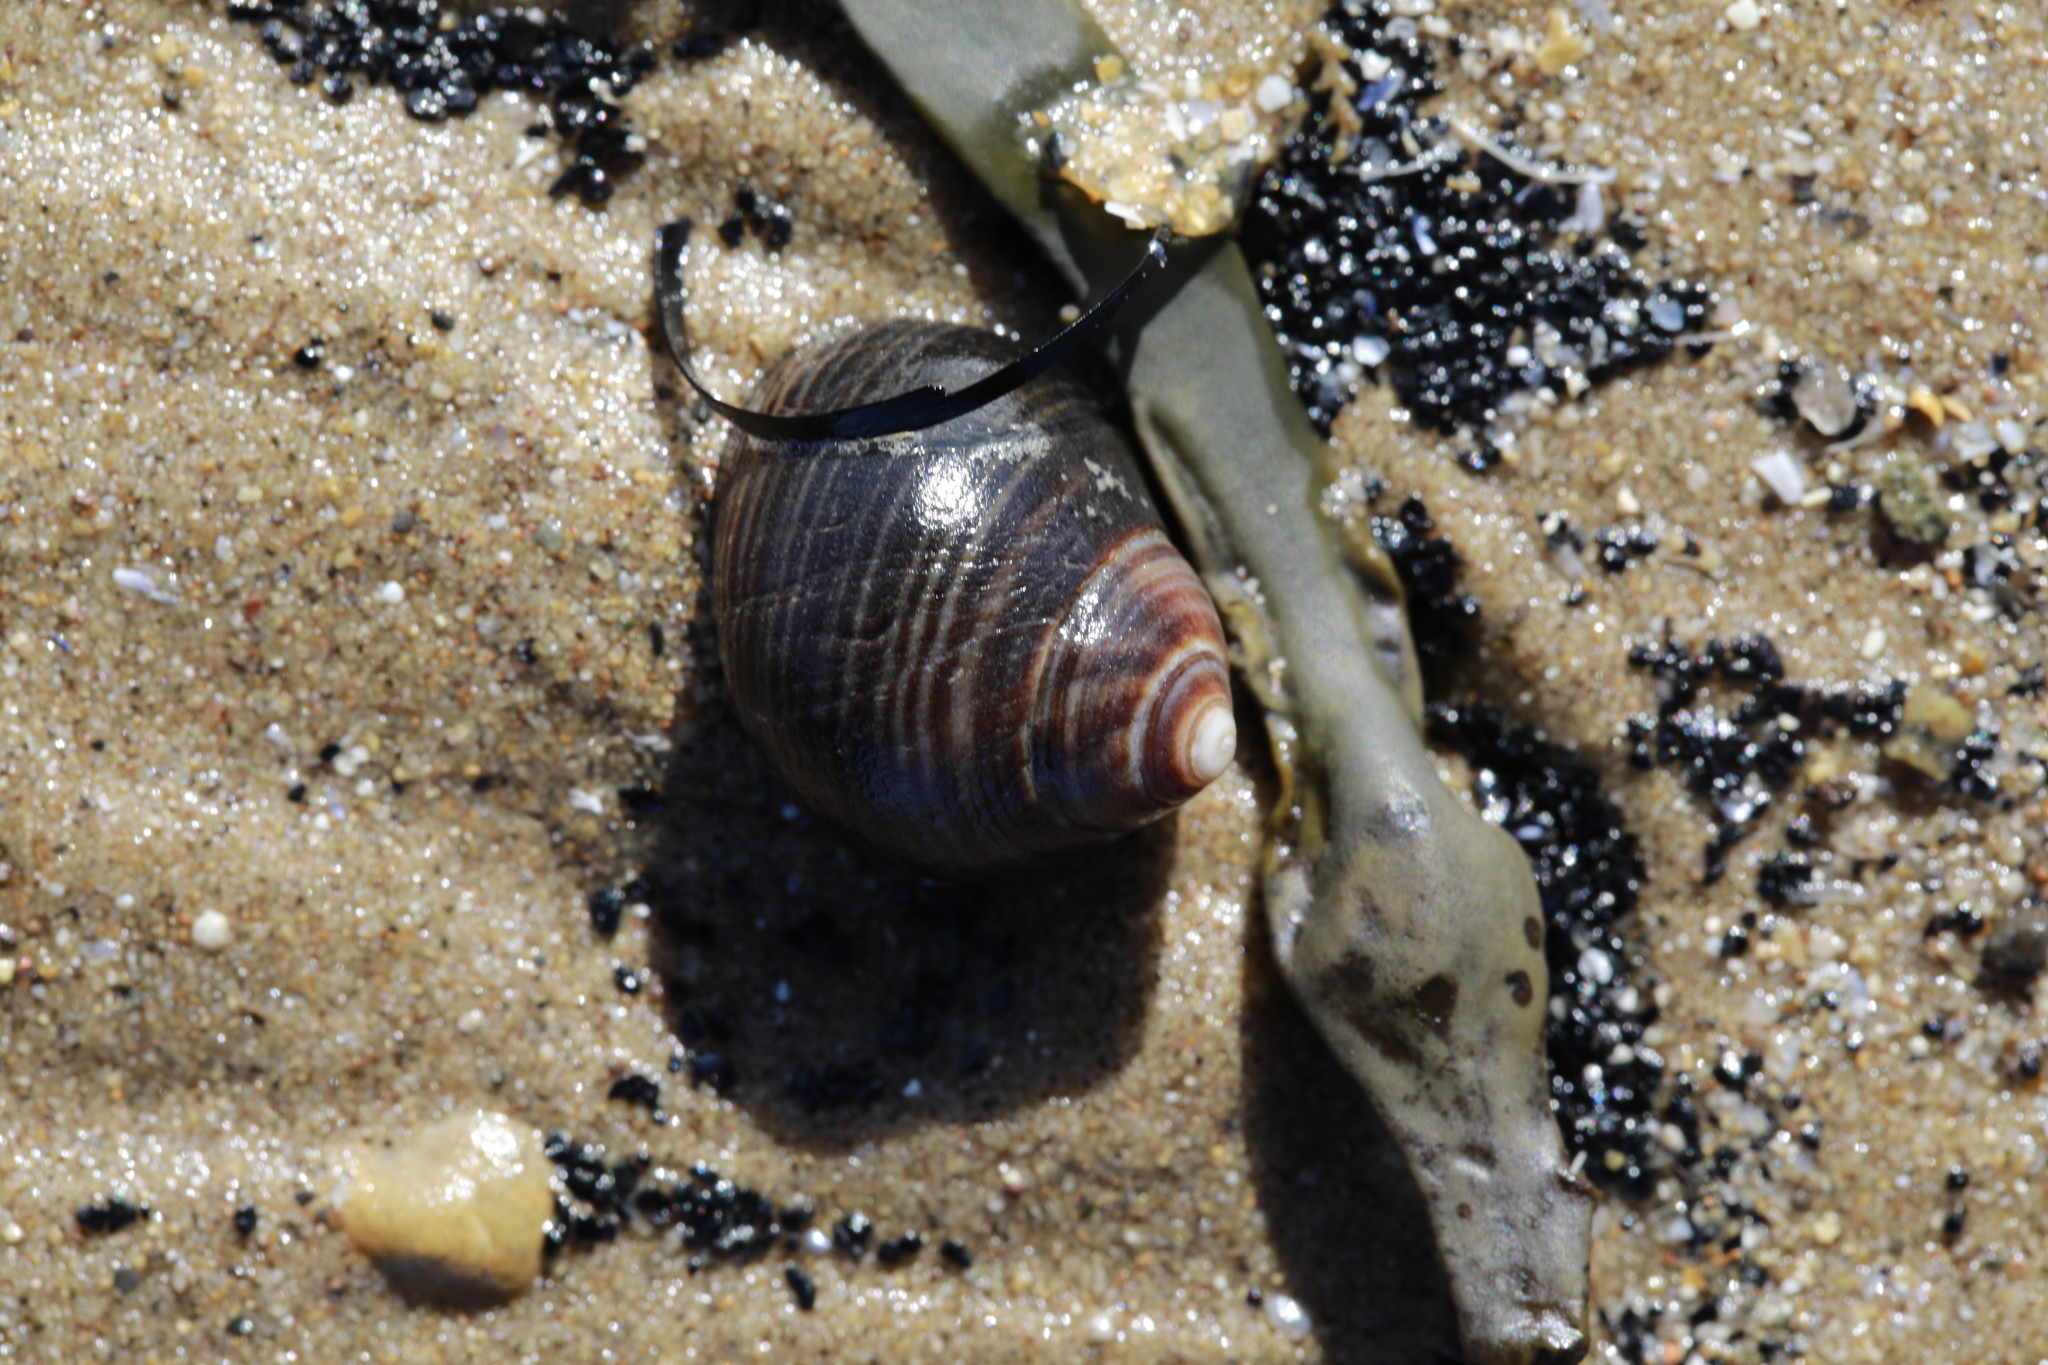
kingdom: Animalia
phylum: Mollusca
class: Gastropoda
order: Littorinimorpha
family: Littorinidae
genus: Littorina
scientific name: Littorina littorea
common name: Common periwinkle
